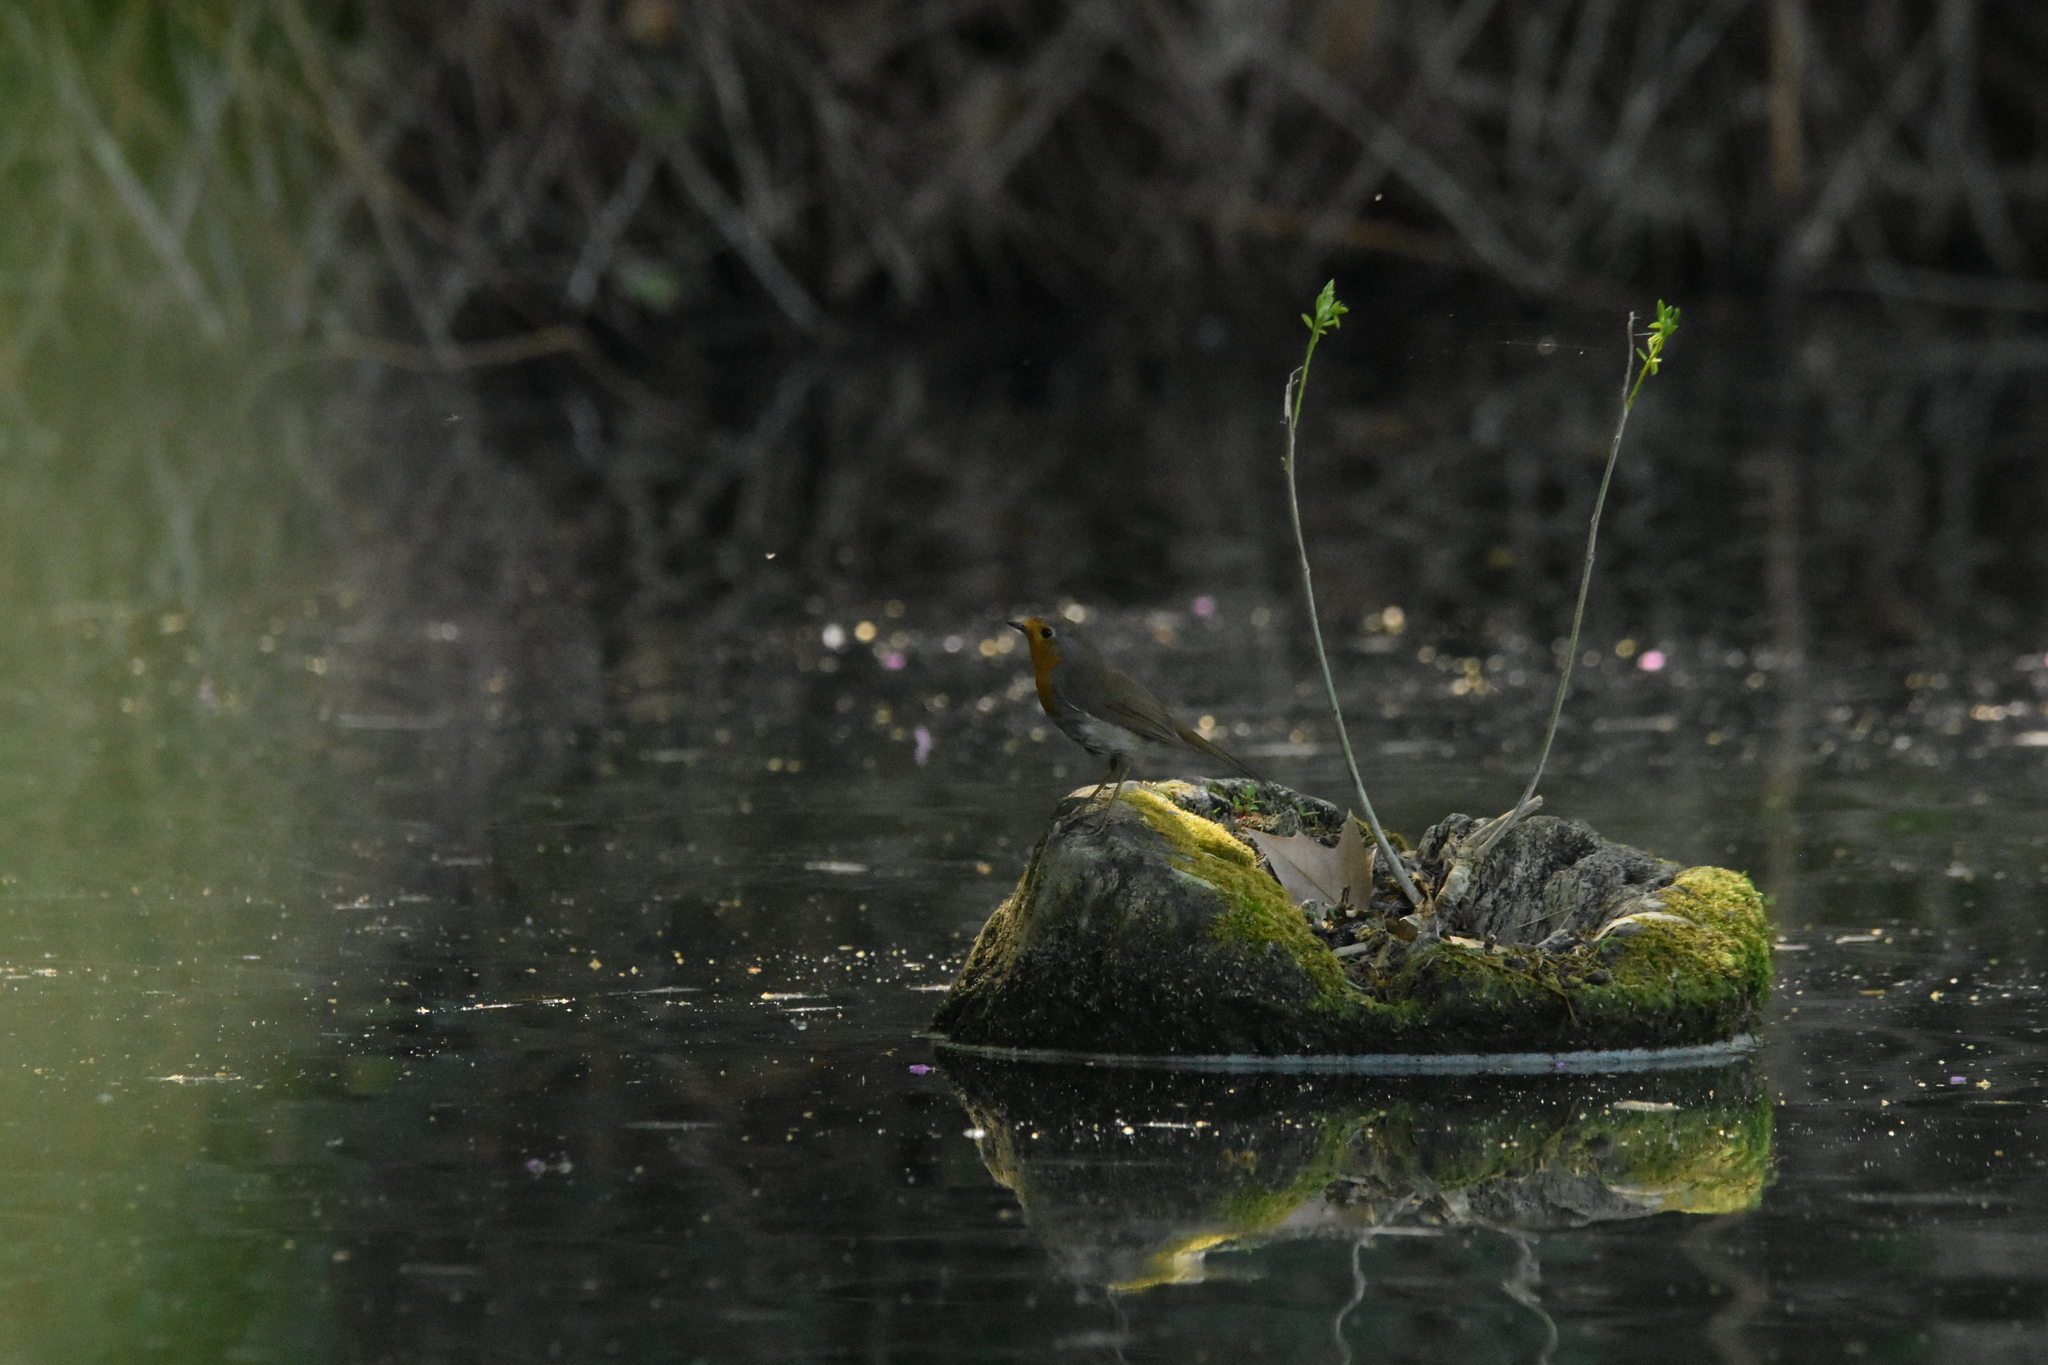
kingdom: Animalia
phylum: Chordata
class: Aves
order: Passeriformes
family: Muscicapidae
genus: Erithacus
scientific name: Erithacus rubecula
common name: European robin
